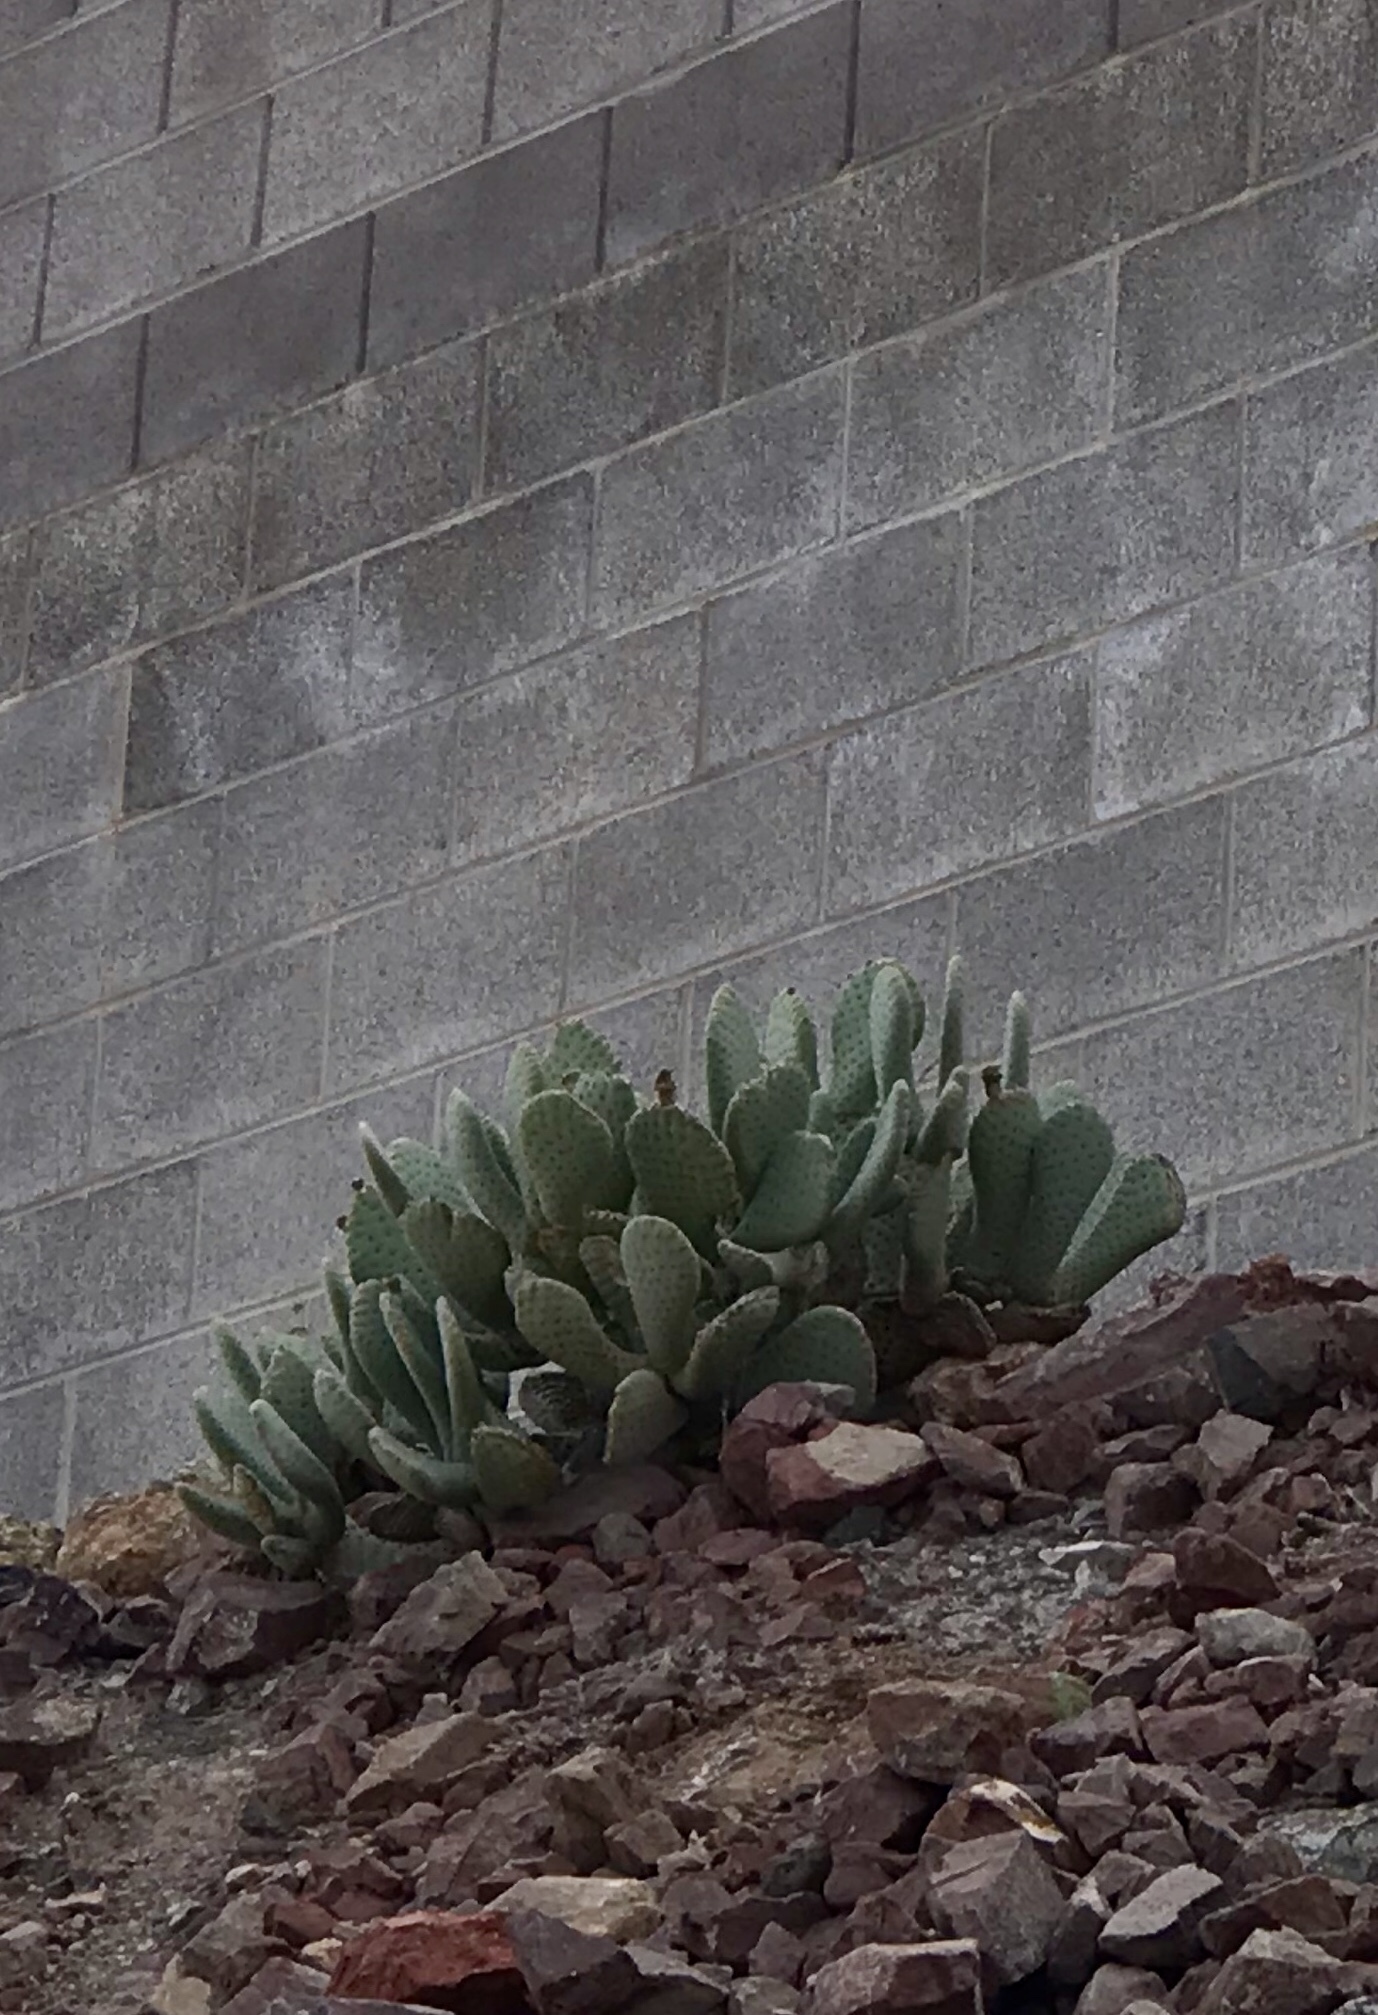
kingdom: Plantae
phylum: Tracheophyta
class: Magnoliopsida
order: Caryophyllales
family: Cactaceae
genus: Opuntia
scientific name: Opuntia basilaris
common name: Beavertail prickly-pear
